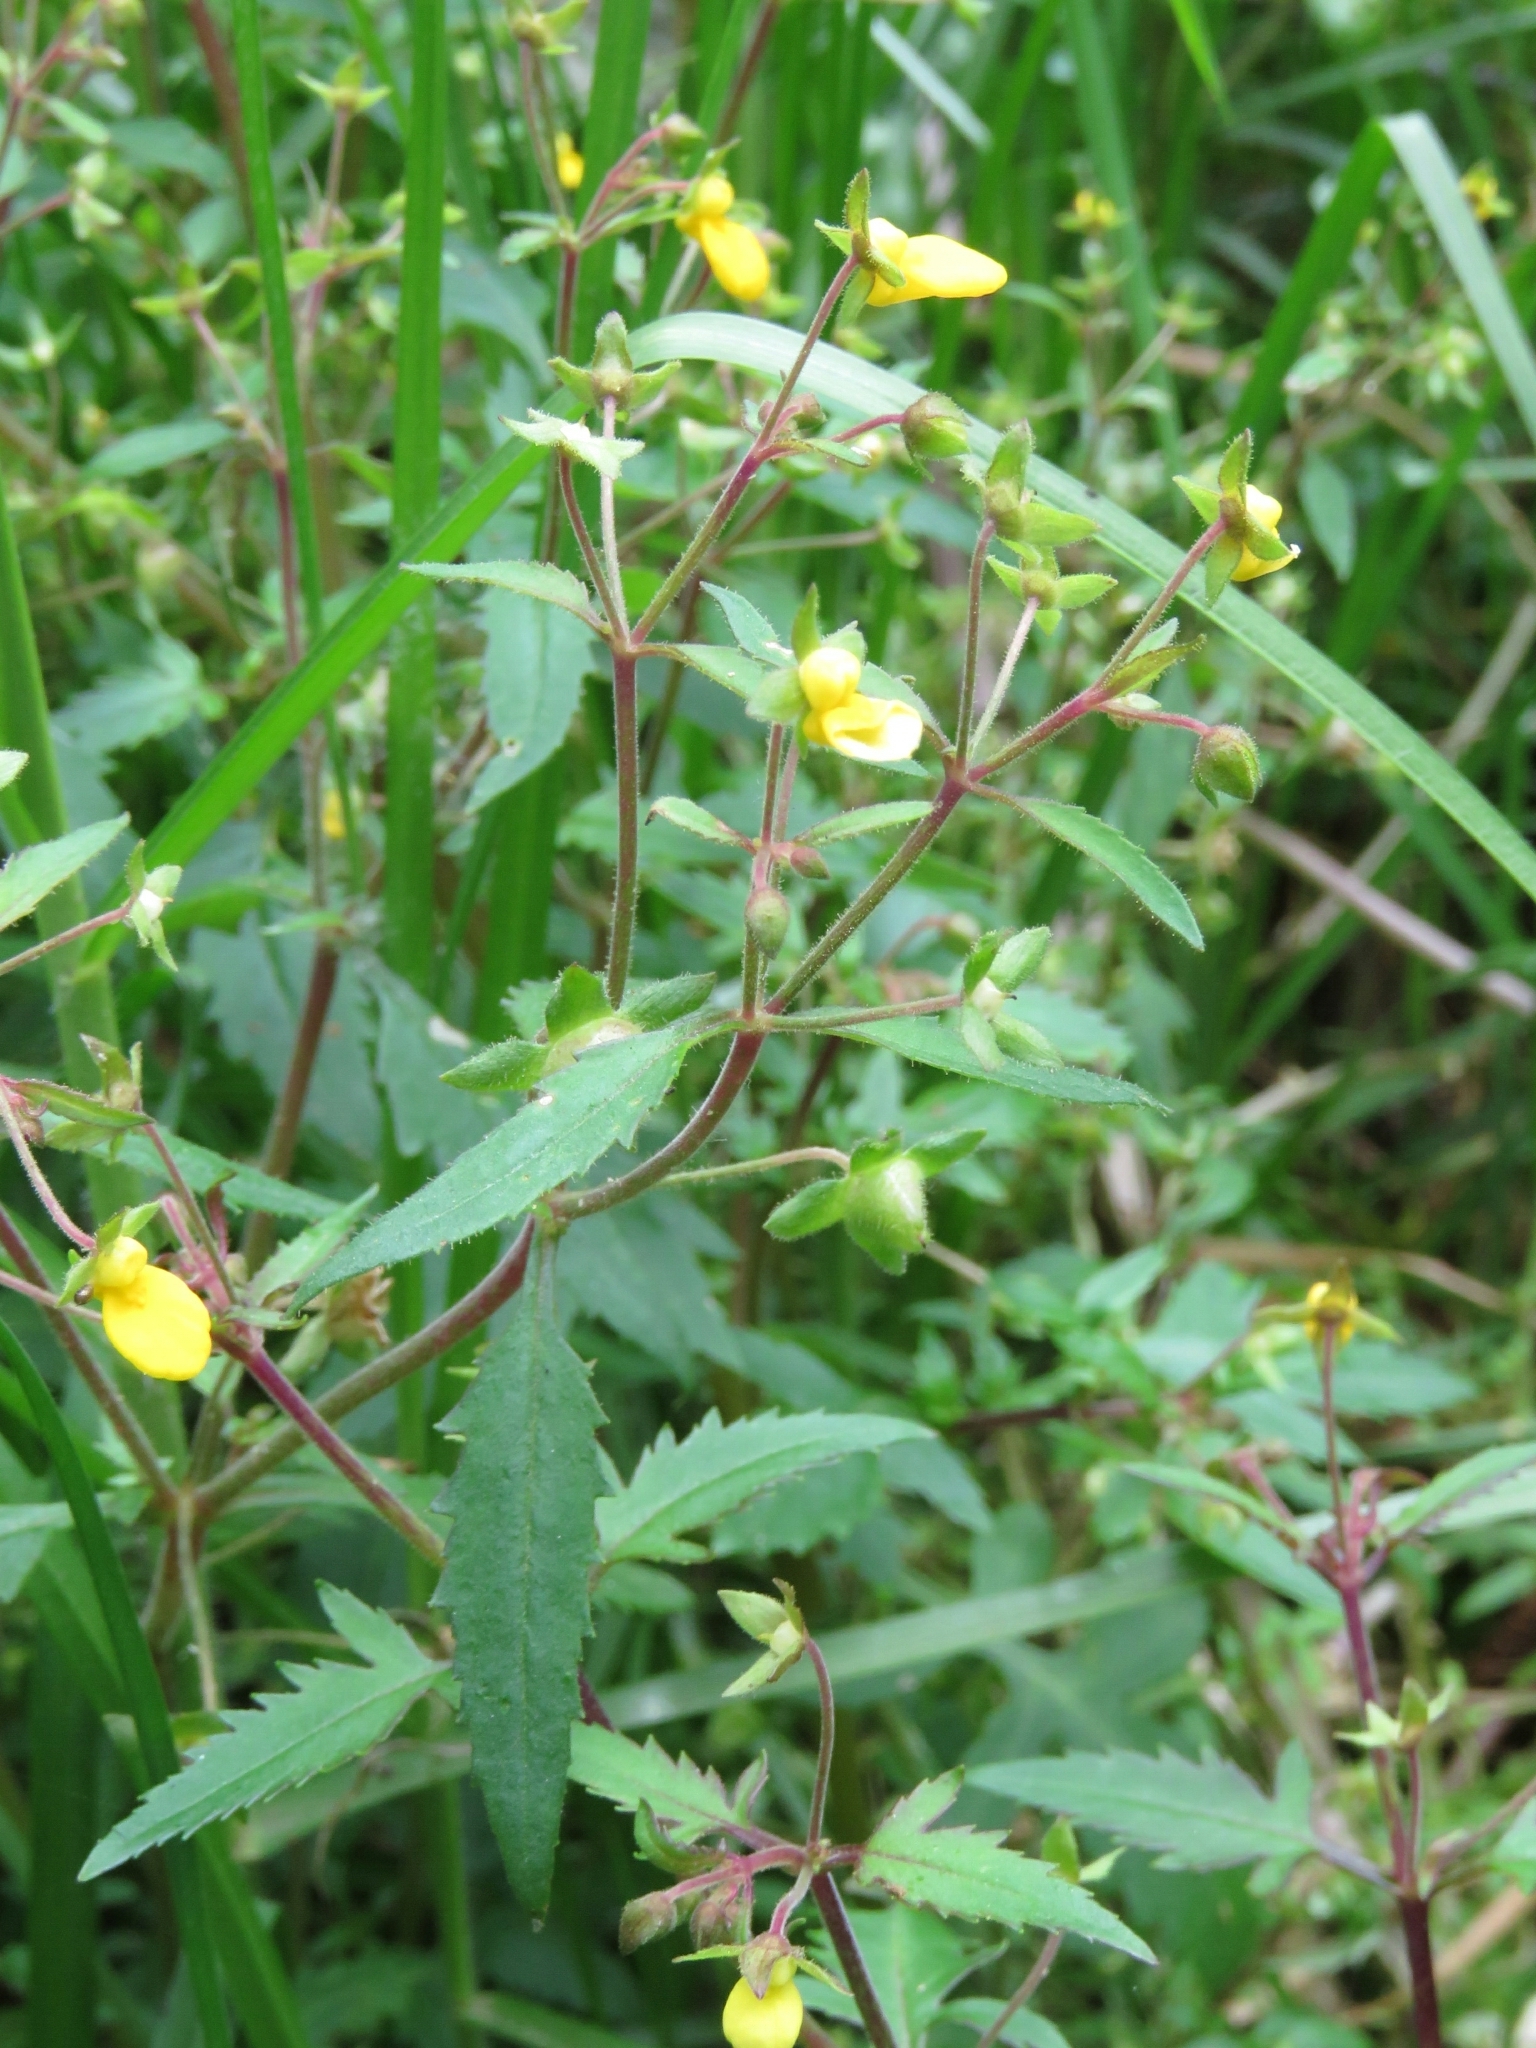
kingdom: Plantae
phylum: Tracheophyta
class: Magnoliopsida
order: Lamiales
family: Calceolariaceae
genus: Calceolaria
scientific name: Calceolaria mexicana
